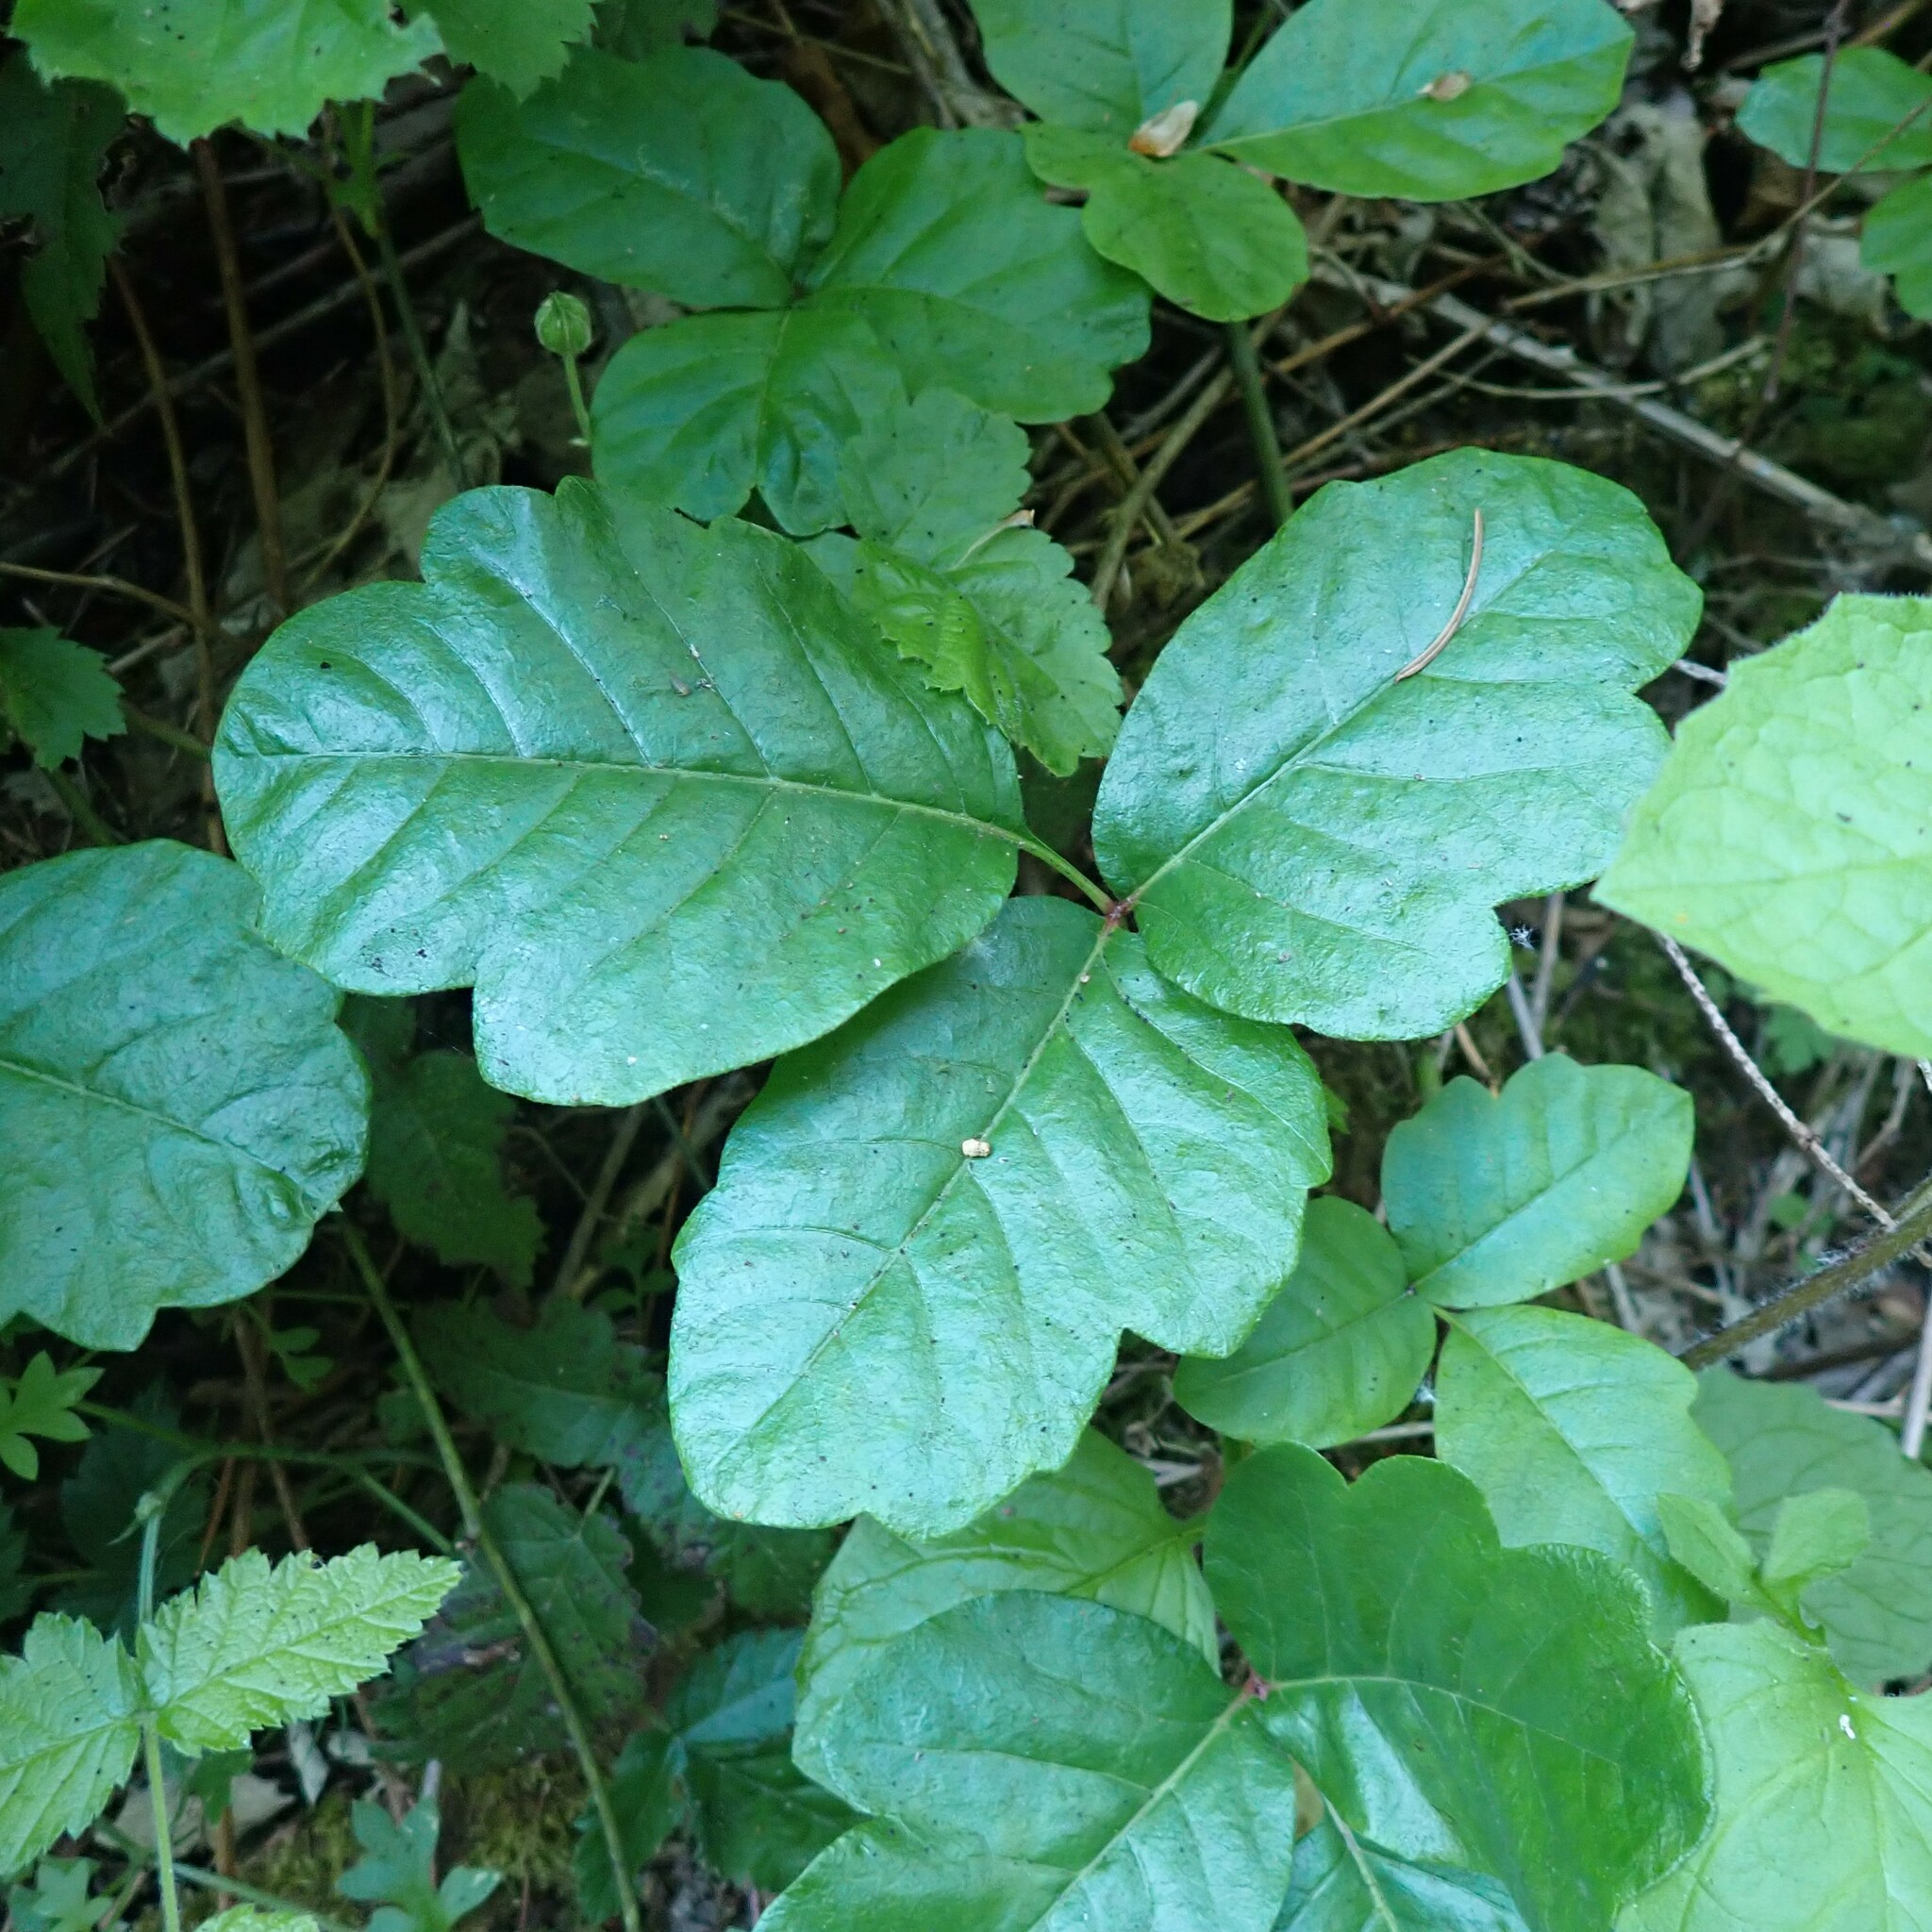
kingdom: Plantae
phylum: Tracheophyta
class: Magnoliopsida
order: Sapindales
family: Anacardiaceae
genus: Toxicodendron
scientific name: Toxicodendron diversilobum
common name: Pacific poison-oak
